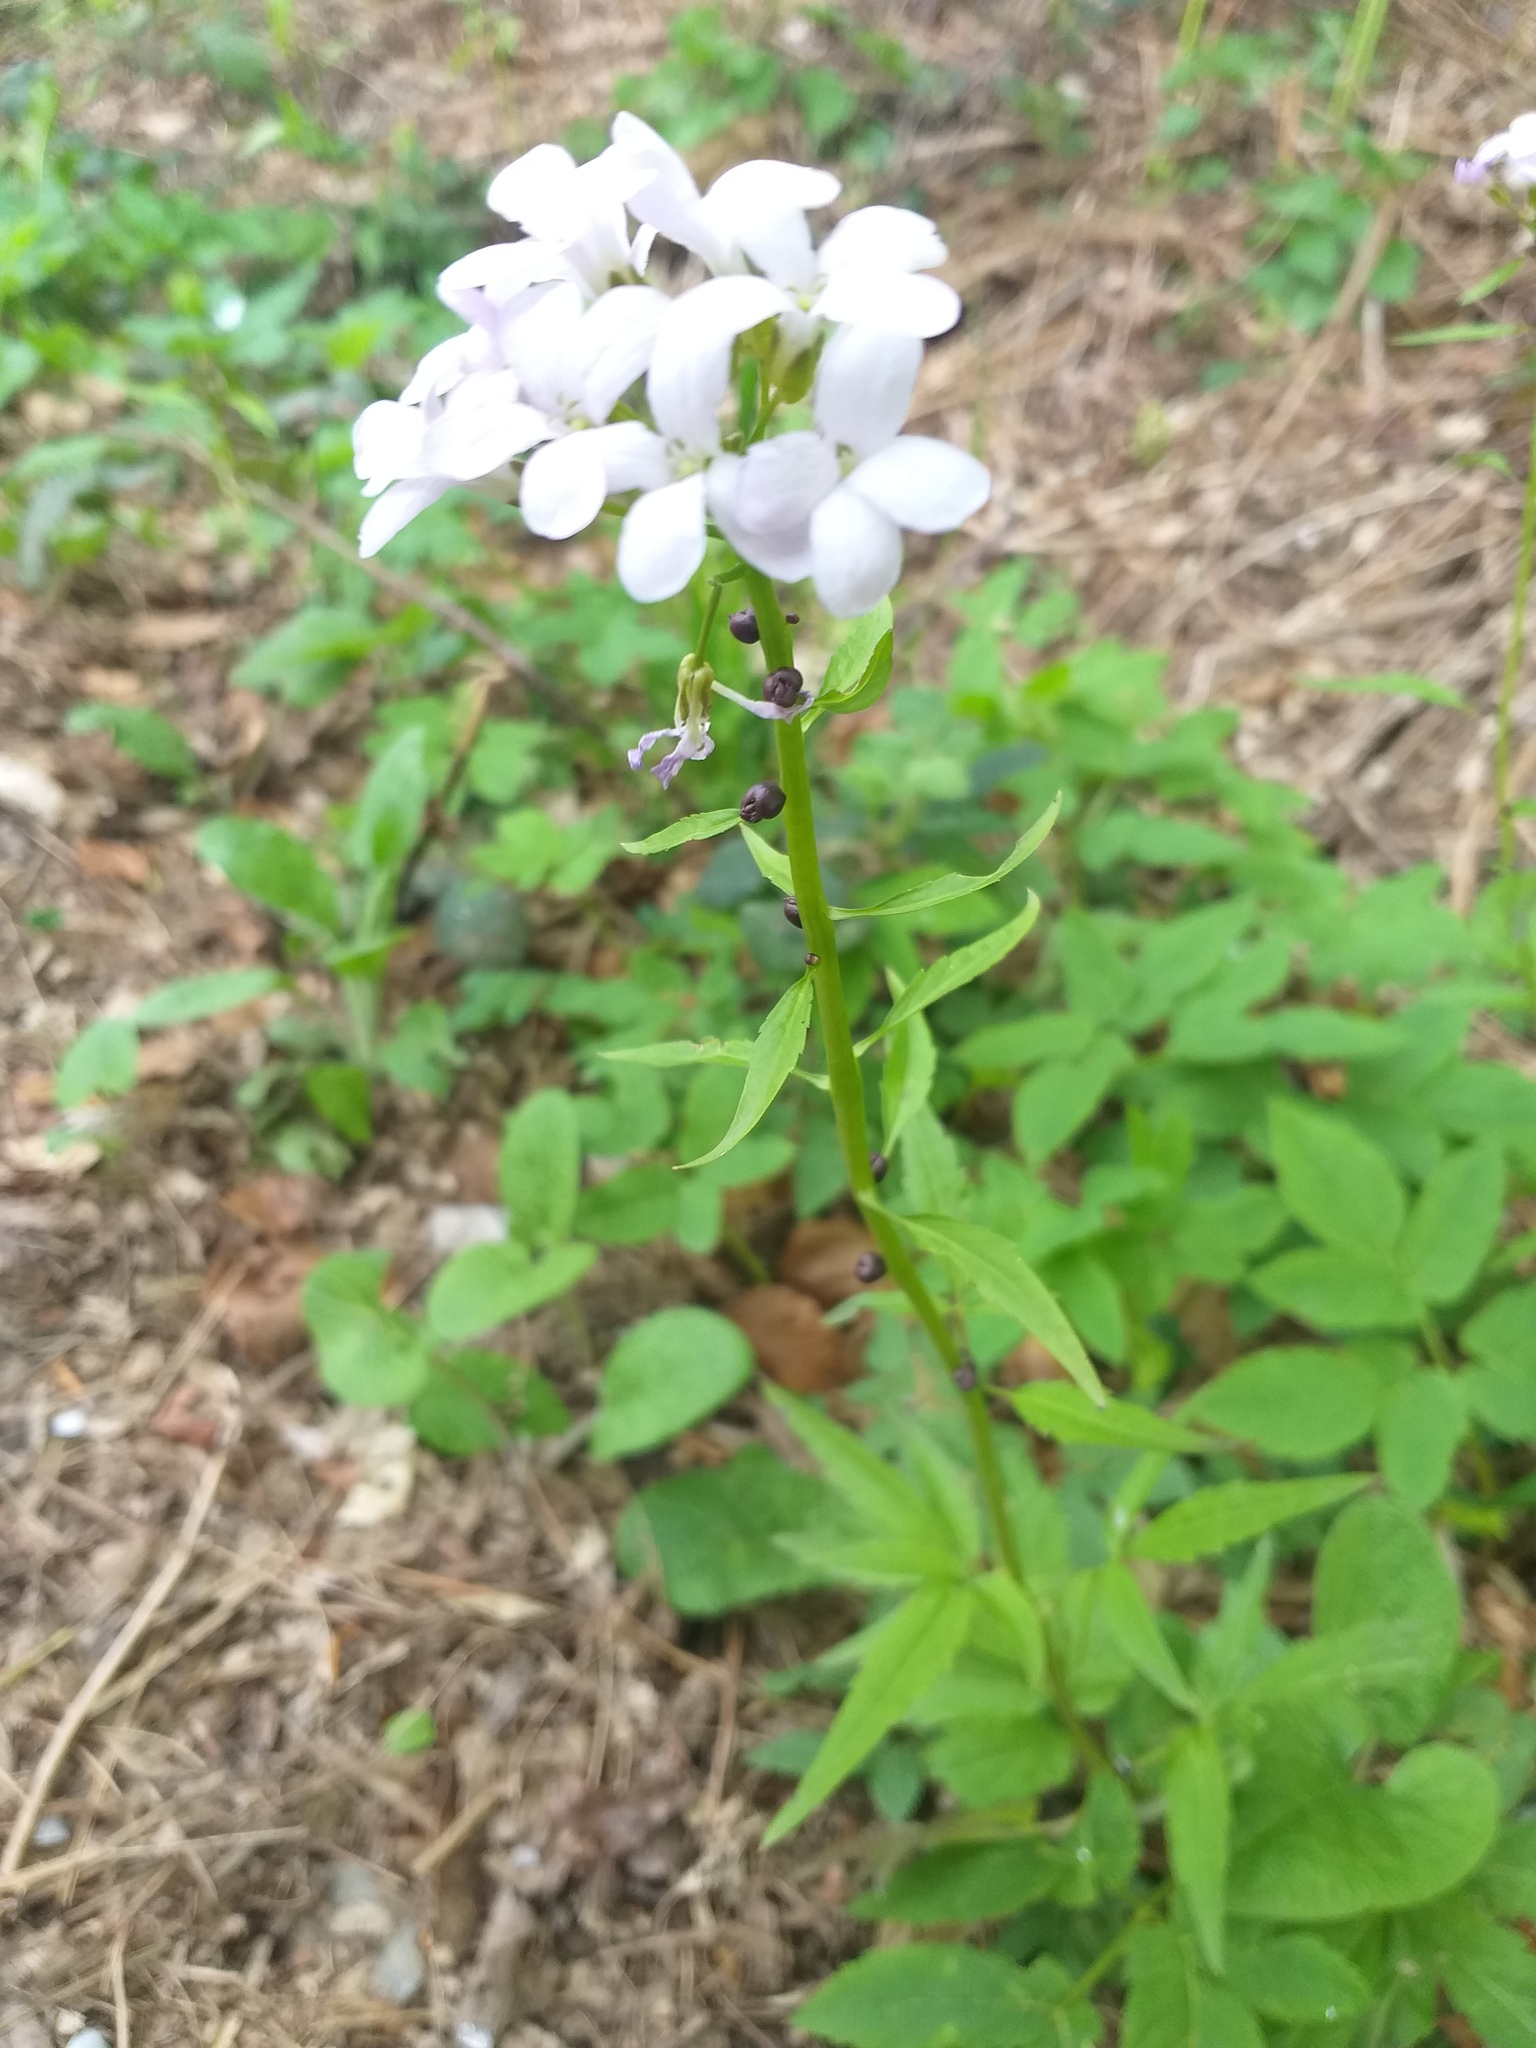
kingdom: Plantae
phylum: Tracheophyta
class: Magnoliopsida
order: Brassicales
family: Brassicaceae
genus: Cardamine
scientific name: Cardamine bulbifera
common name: Coralroot bittercress
